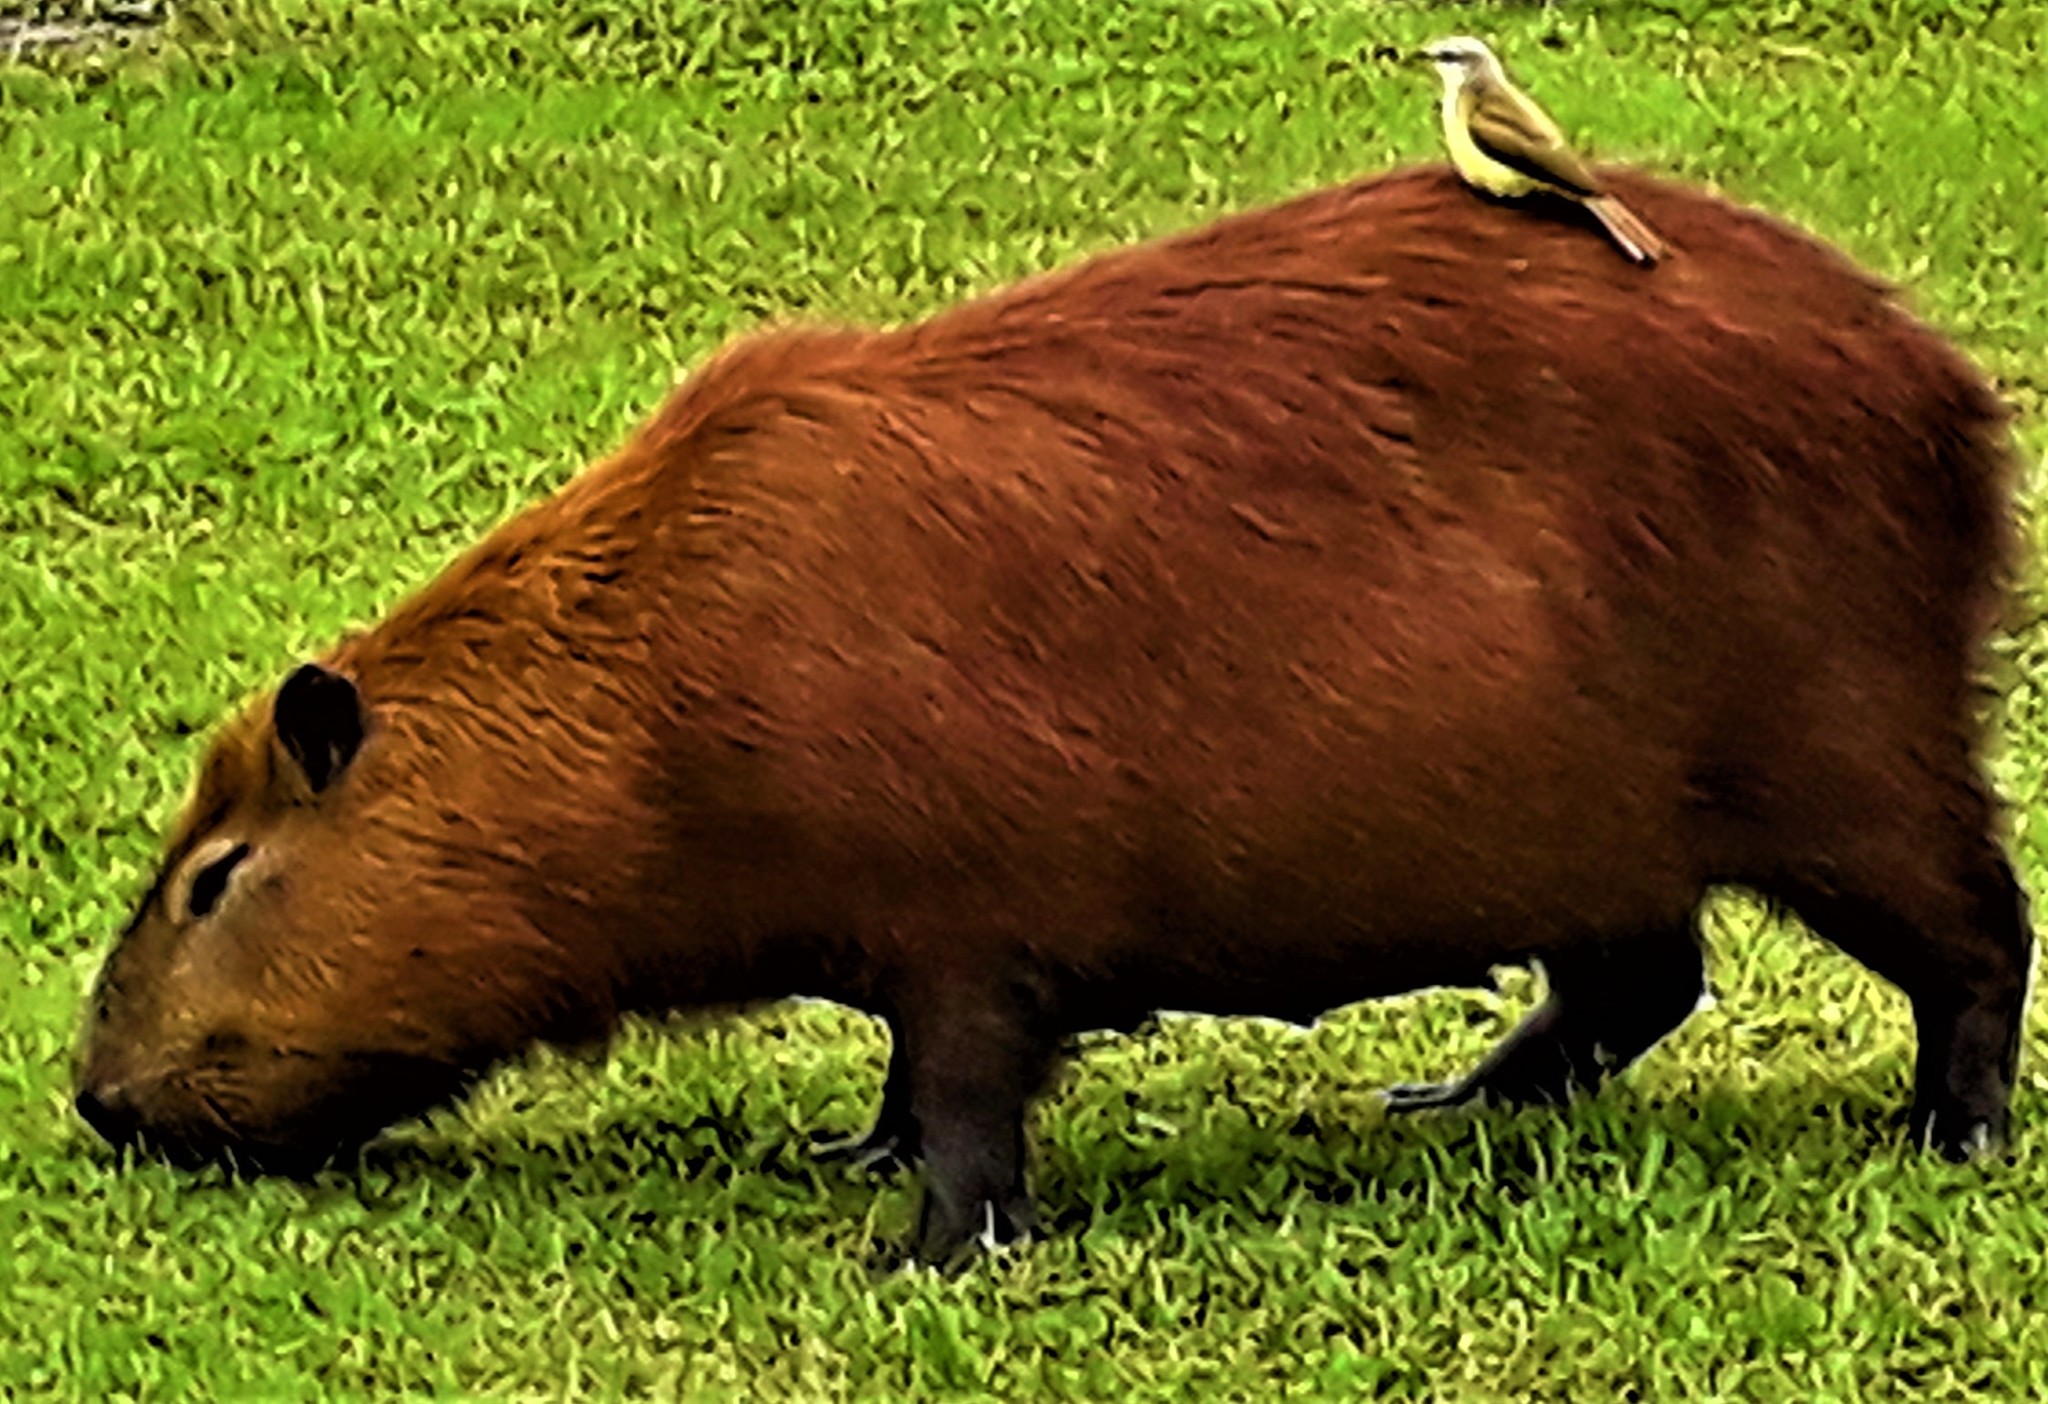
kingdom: Animalia
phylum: Chordata
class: Mammalia
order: Rodentia
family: Caviidae
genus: Hydrochoerus
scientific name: Hydrochoerus hydrochaeris
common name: Capybara
